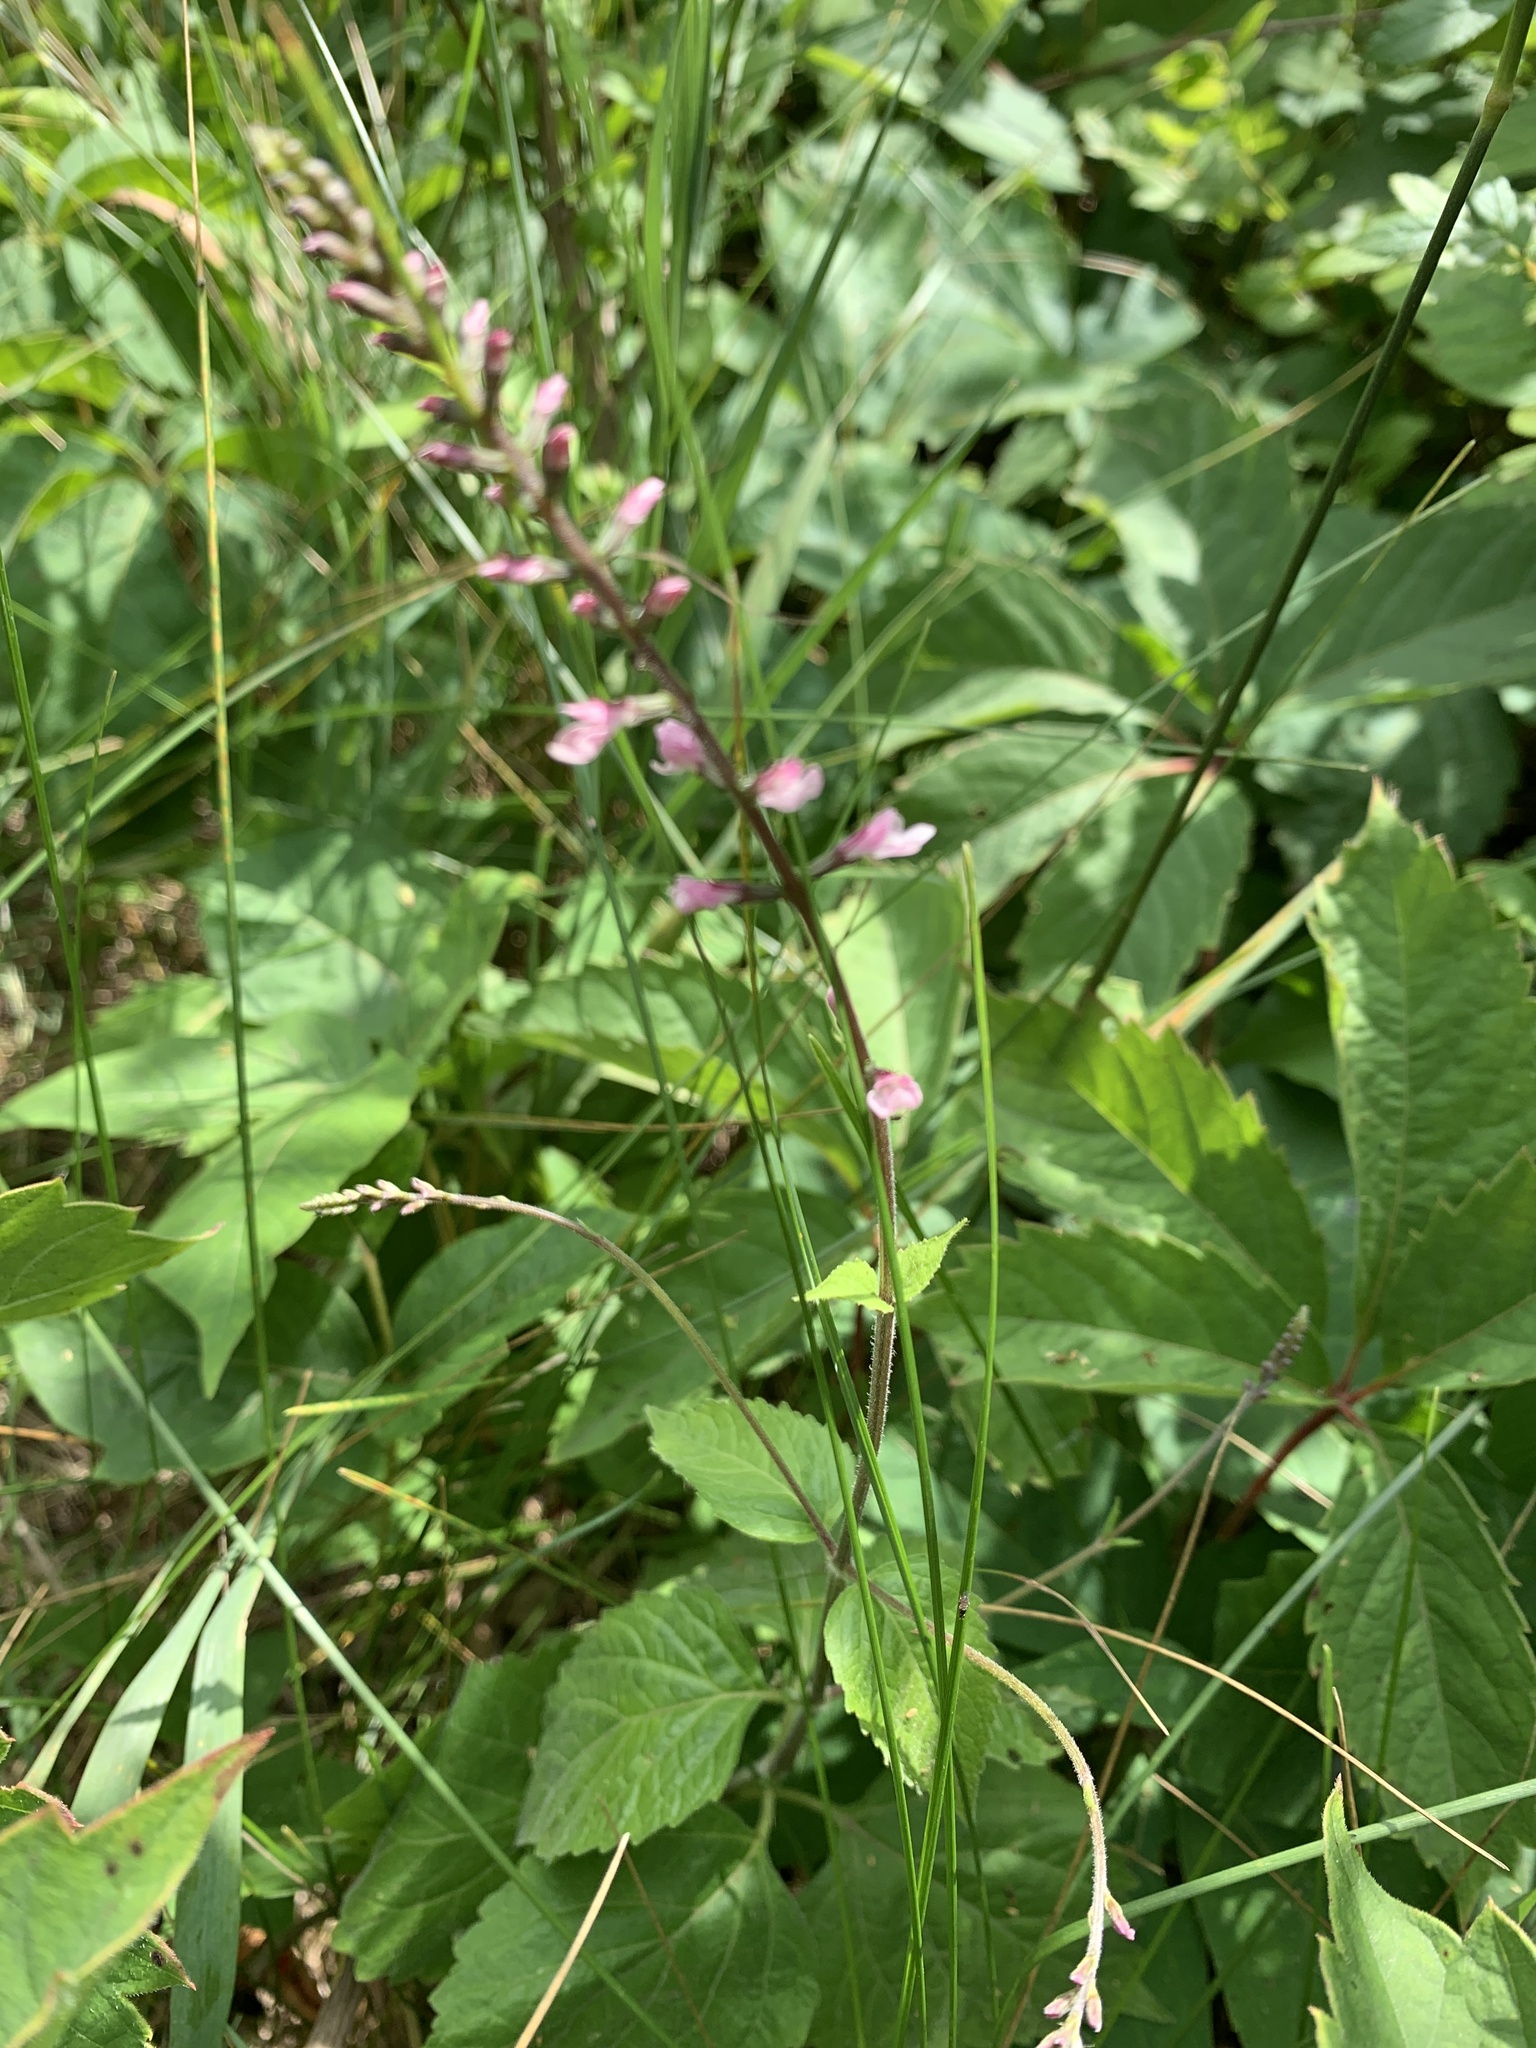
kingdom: Plantae
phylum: Tracheophyta
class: Magnoliopsida
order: Lamiales
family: Phrymaceae
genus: Phryma
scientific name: Phryma leptostachya
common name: American lopseed
